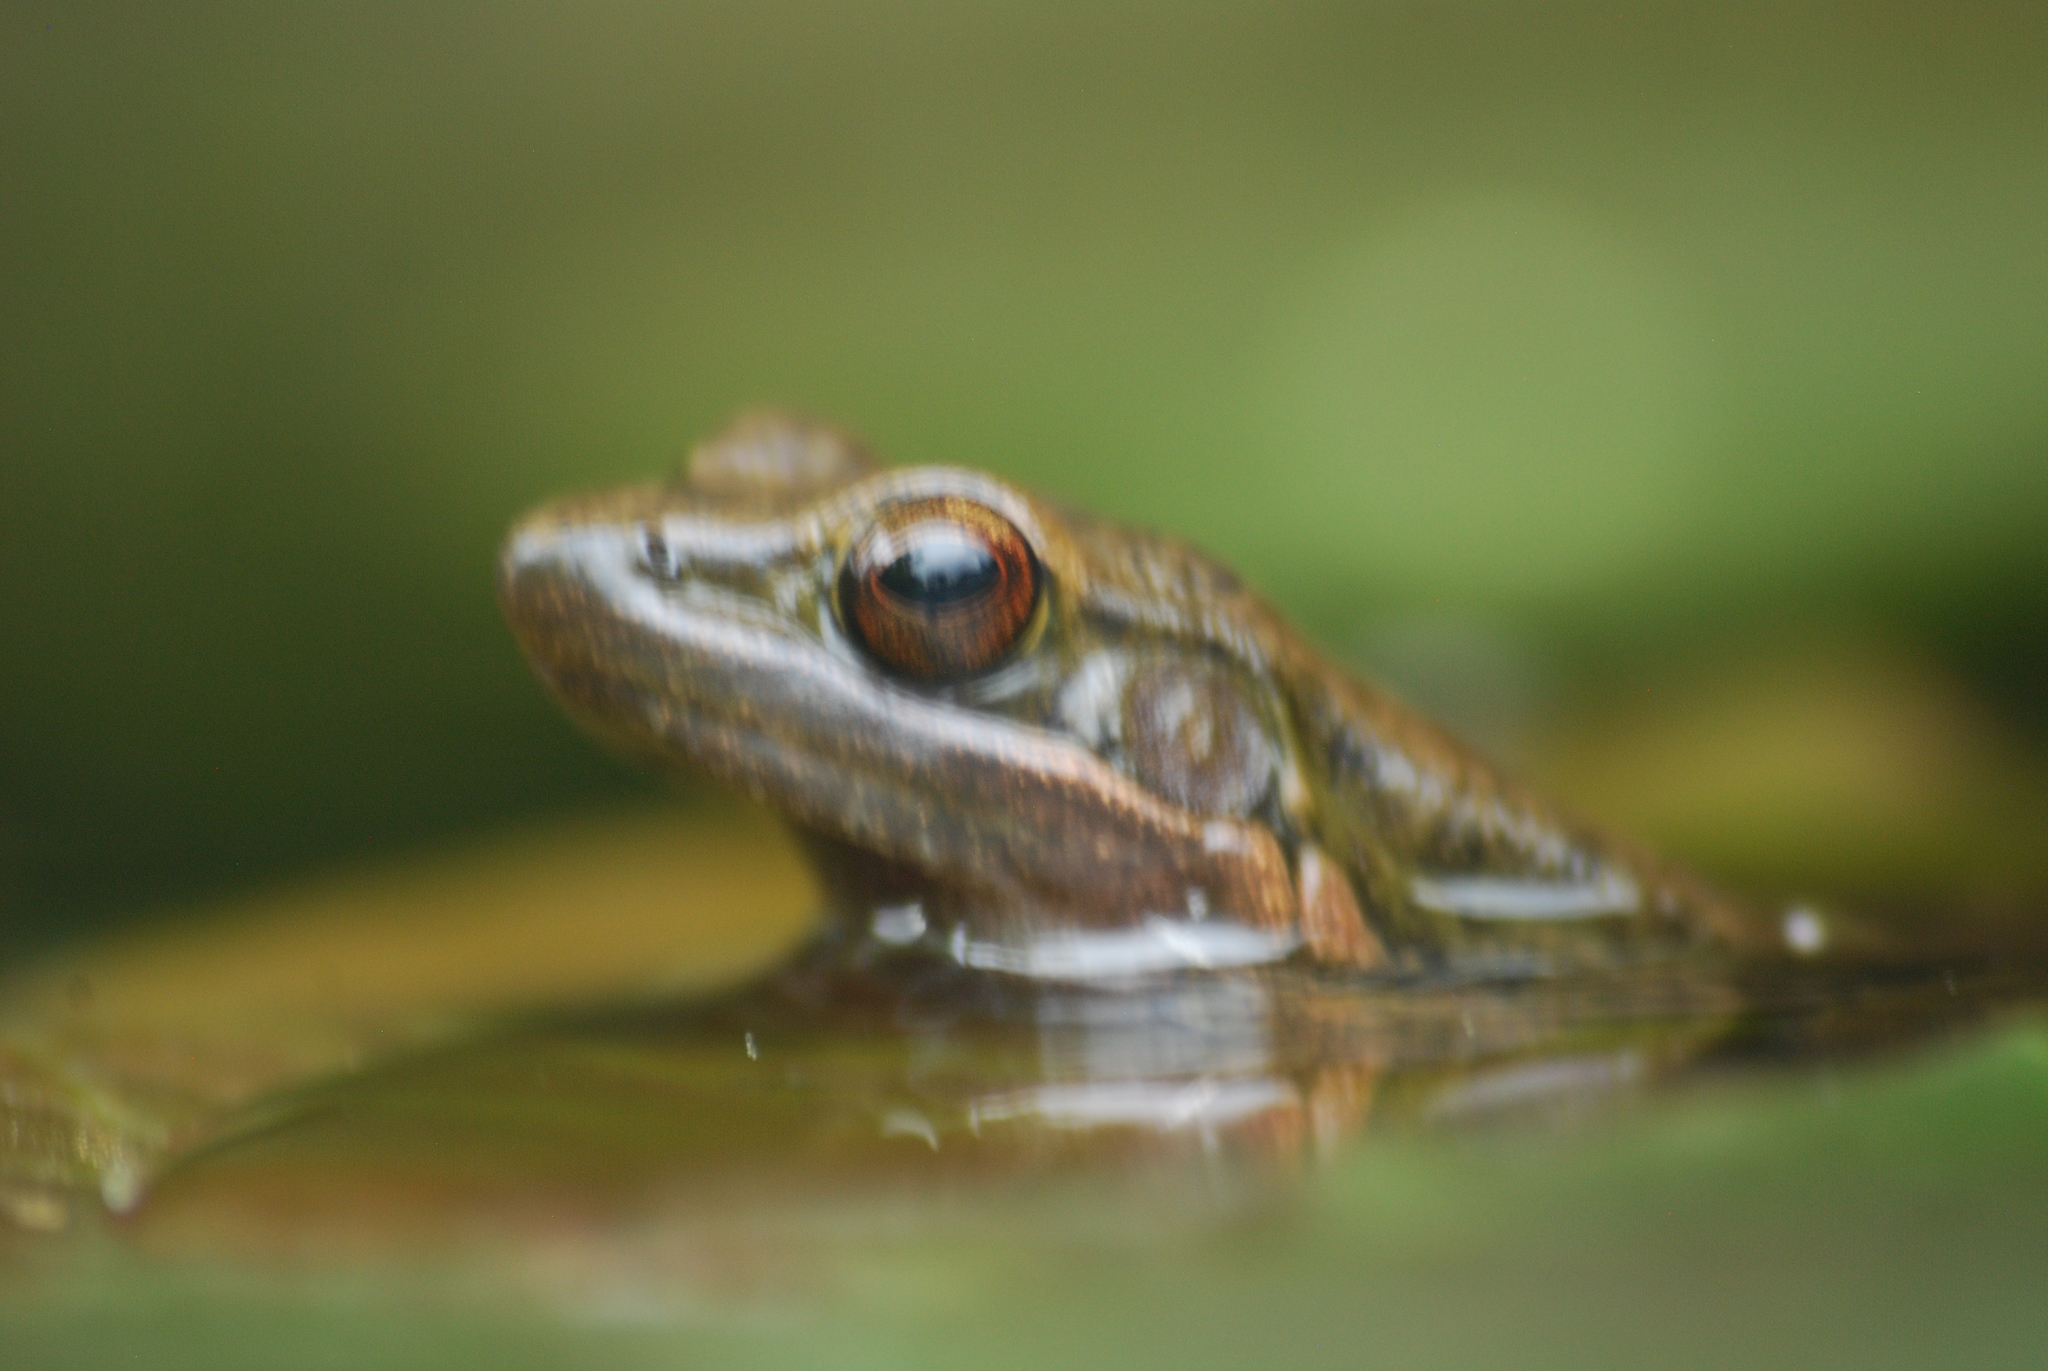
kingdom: Animalia
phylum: Chordata
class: Amphibia
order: Anura
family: Ranidae
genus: Sylvirana
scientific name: Sylvirana nigrovittata
